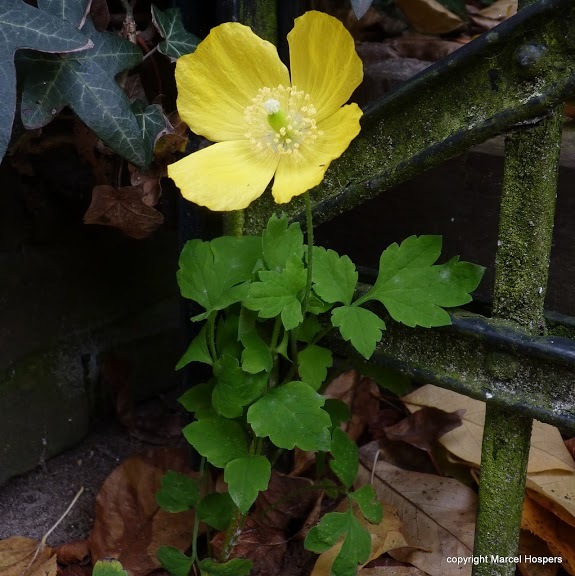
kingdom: Plantae
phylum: Tracheophyta
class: Magnoliopsida
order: Ranunculales
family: Papaveraceae
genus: Papaver
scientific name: Papaver cambricum
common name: Poppy
